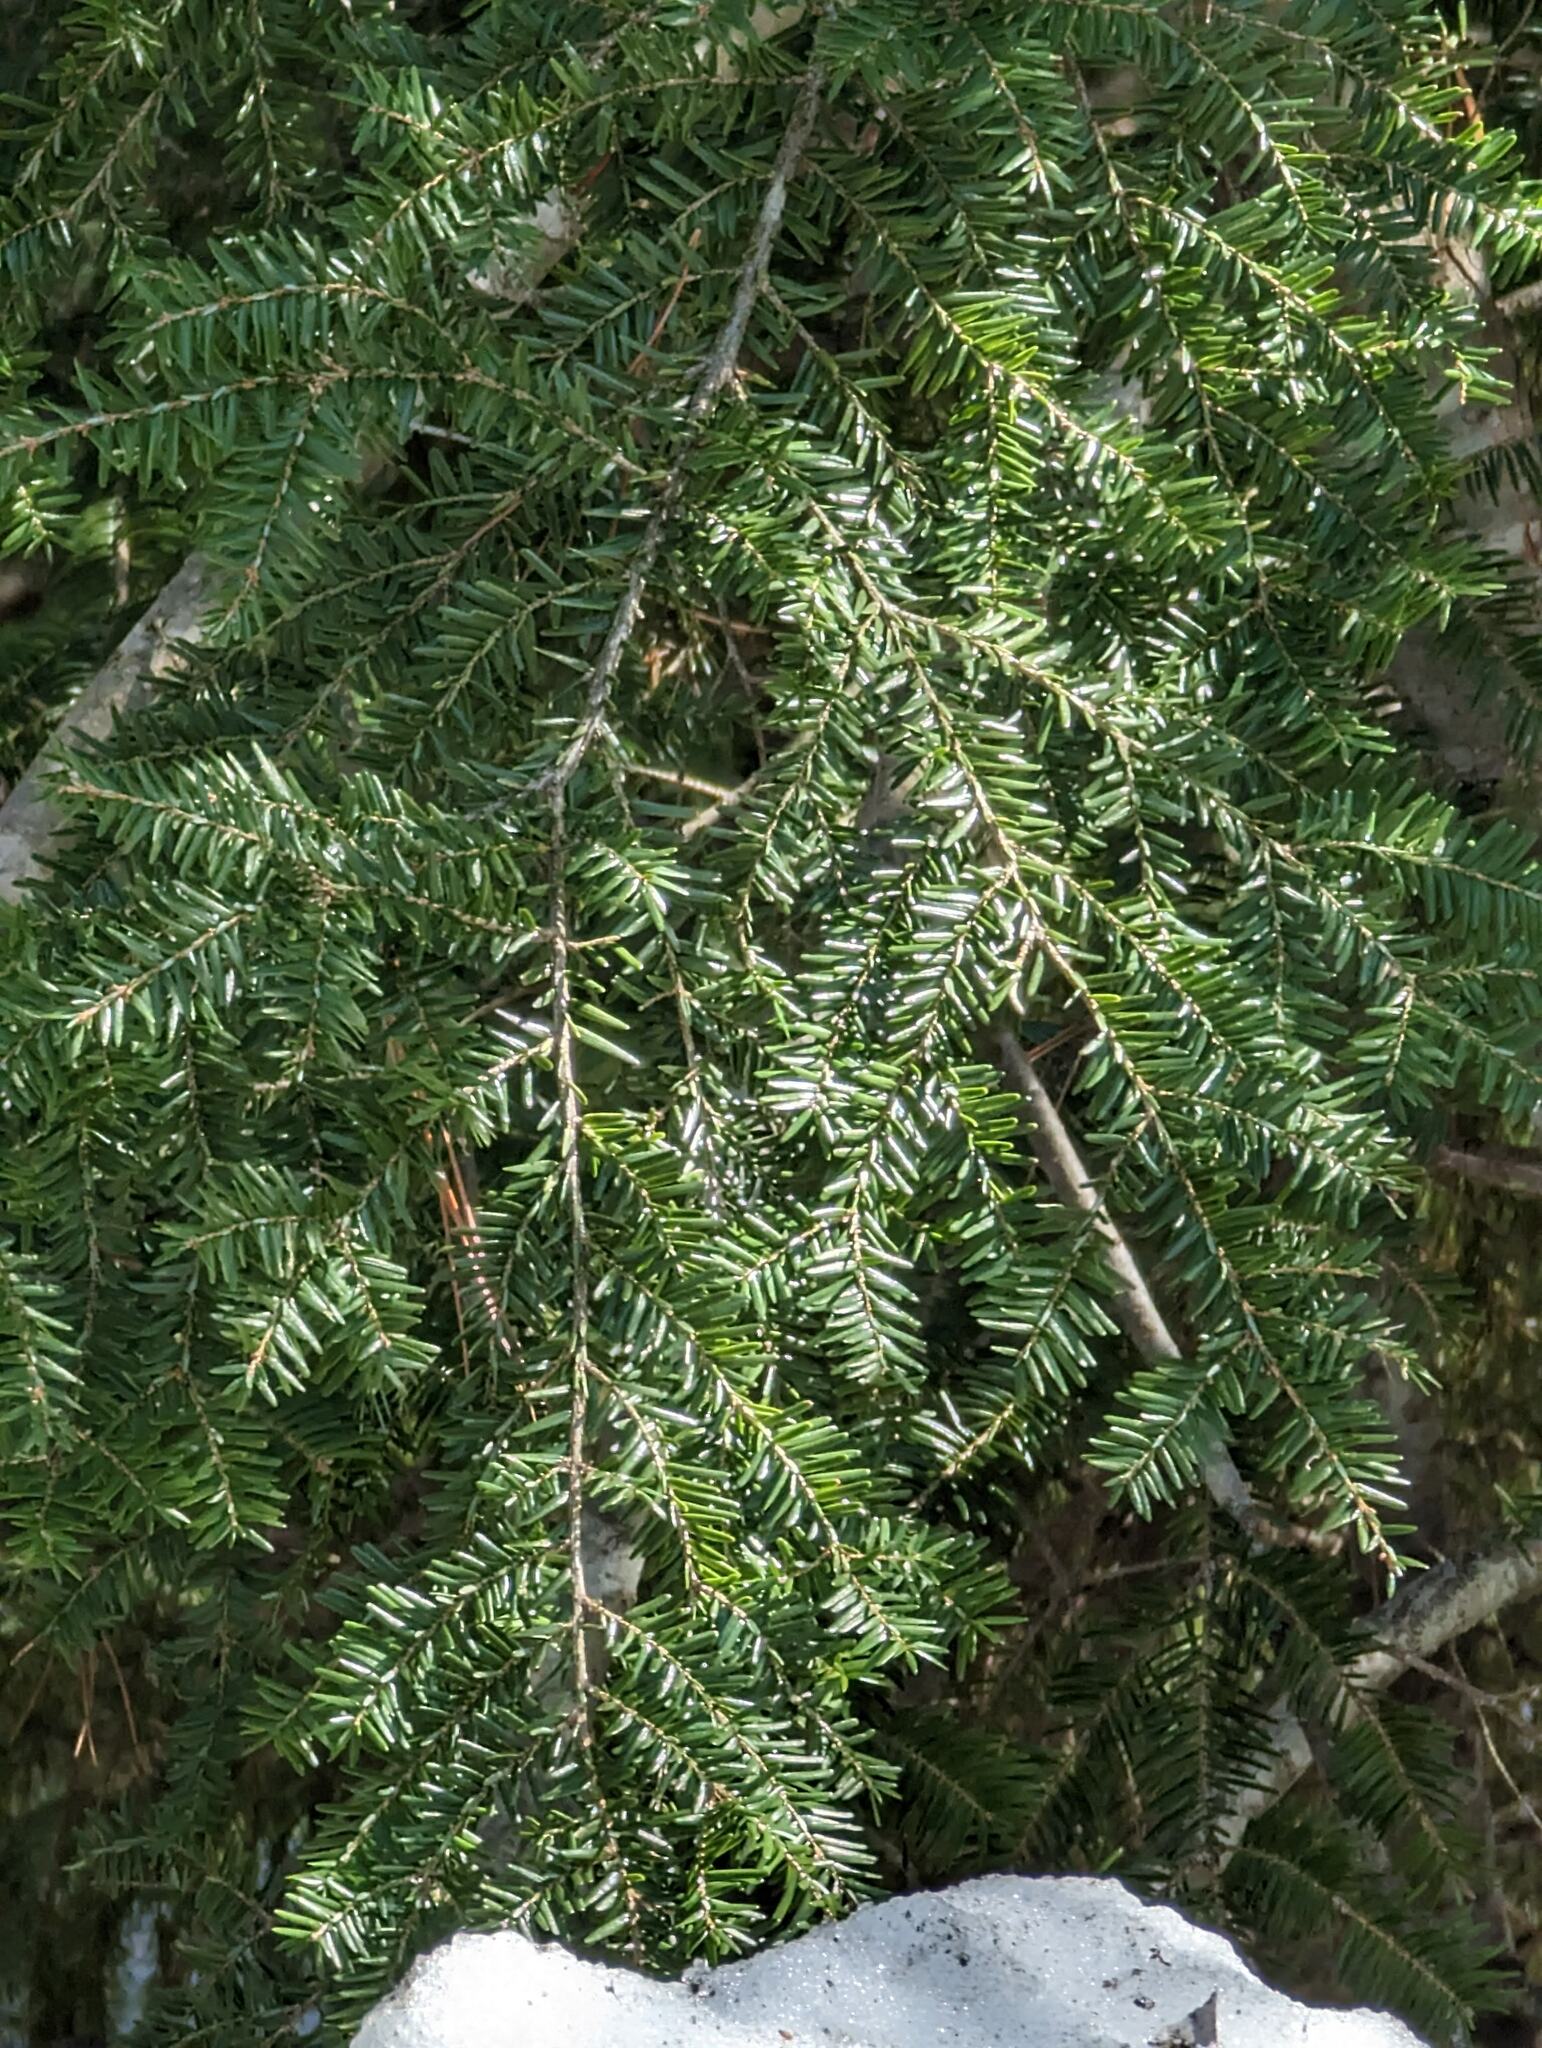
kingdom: Plantae
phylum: Tracheophyta
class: Pinopsida
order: Pinales
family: Pinaceae
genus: Tsuga
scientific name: Tsuga canadensis
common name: Eastern hemlock
